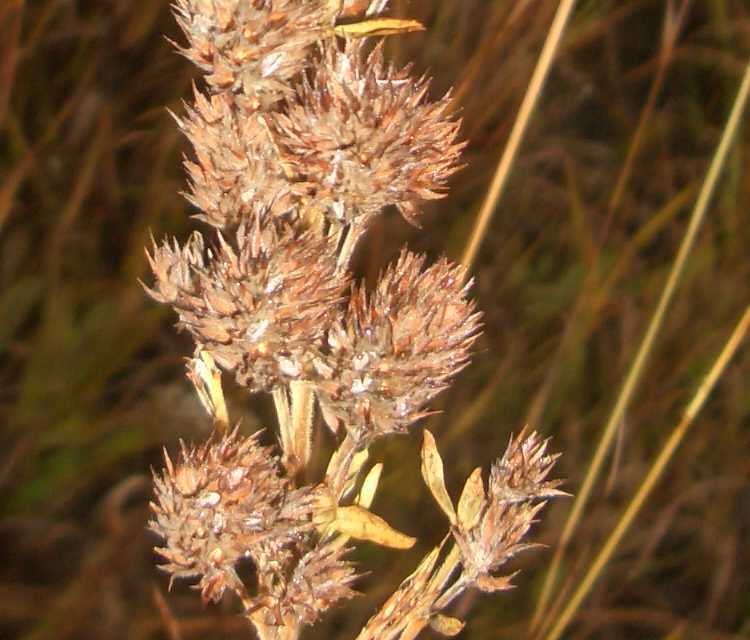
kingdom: Plantae
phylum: Tracheophyta
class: Magnoliopsida
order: Fabales
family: Fabaceae
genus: Lespedeza
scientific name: Lespedeza capitata
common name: Dusty clover
